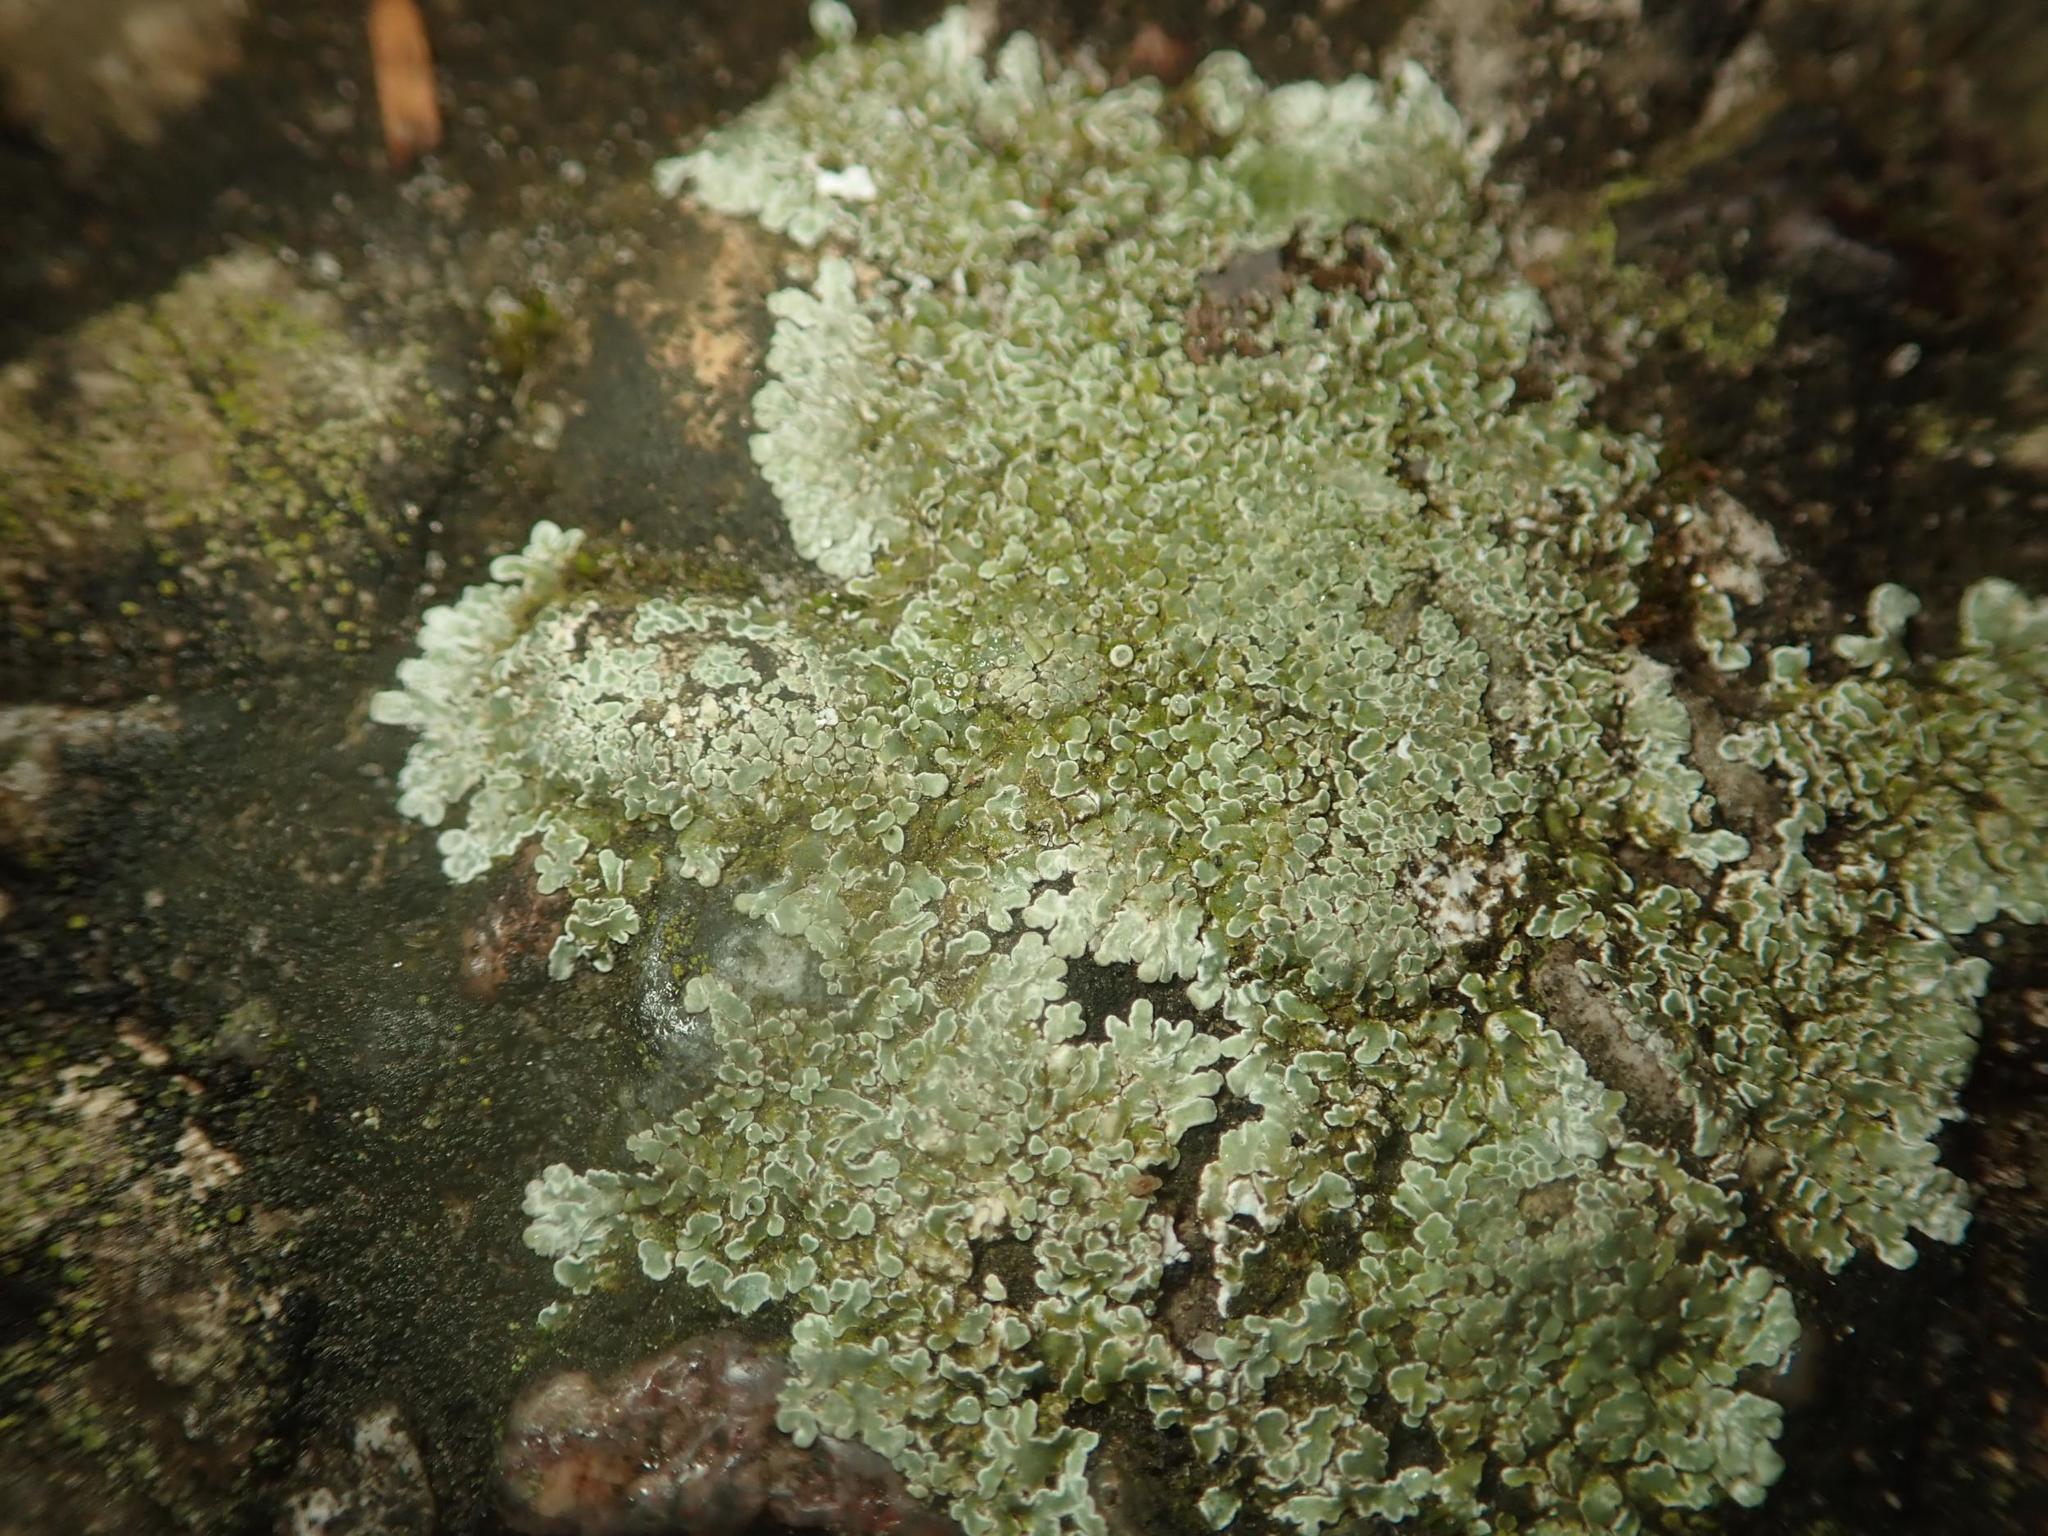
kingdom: Fungi
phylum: Ascomycota
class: Lecanoromycetes
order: Lecanorales
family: Lecanoraceae
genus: Protoparmeliopsis
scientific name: Protoparmeliopsis muralis
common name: Stonewall rim lichen
